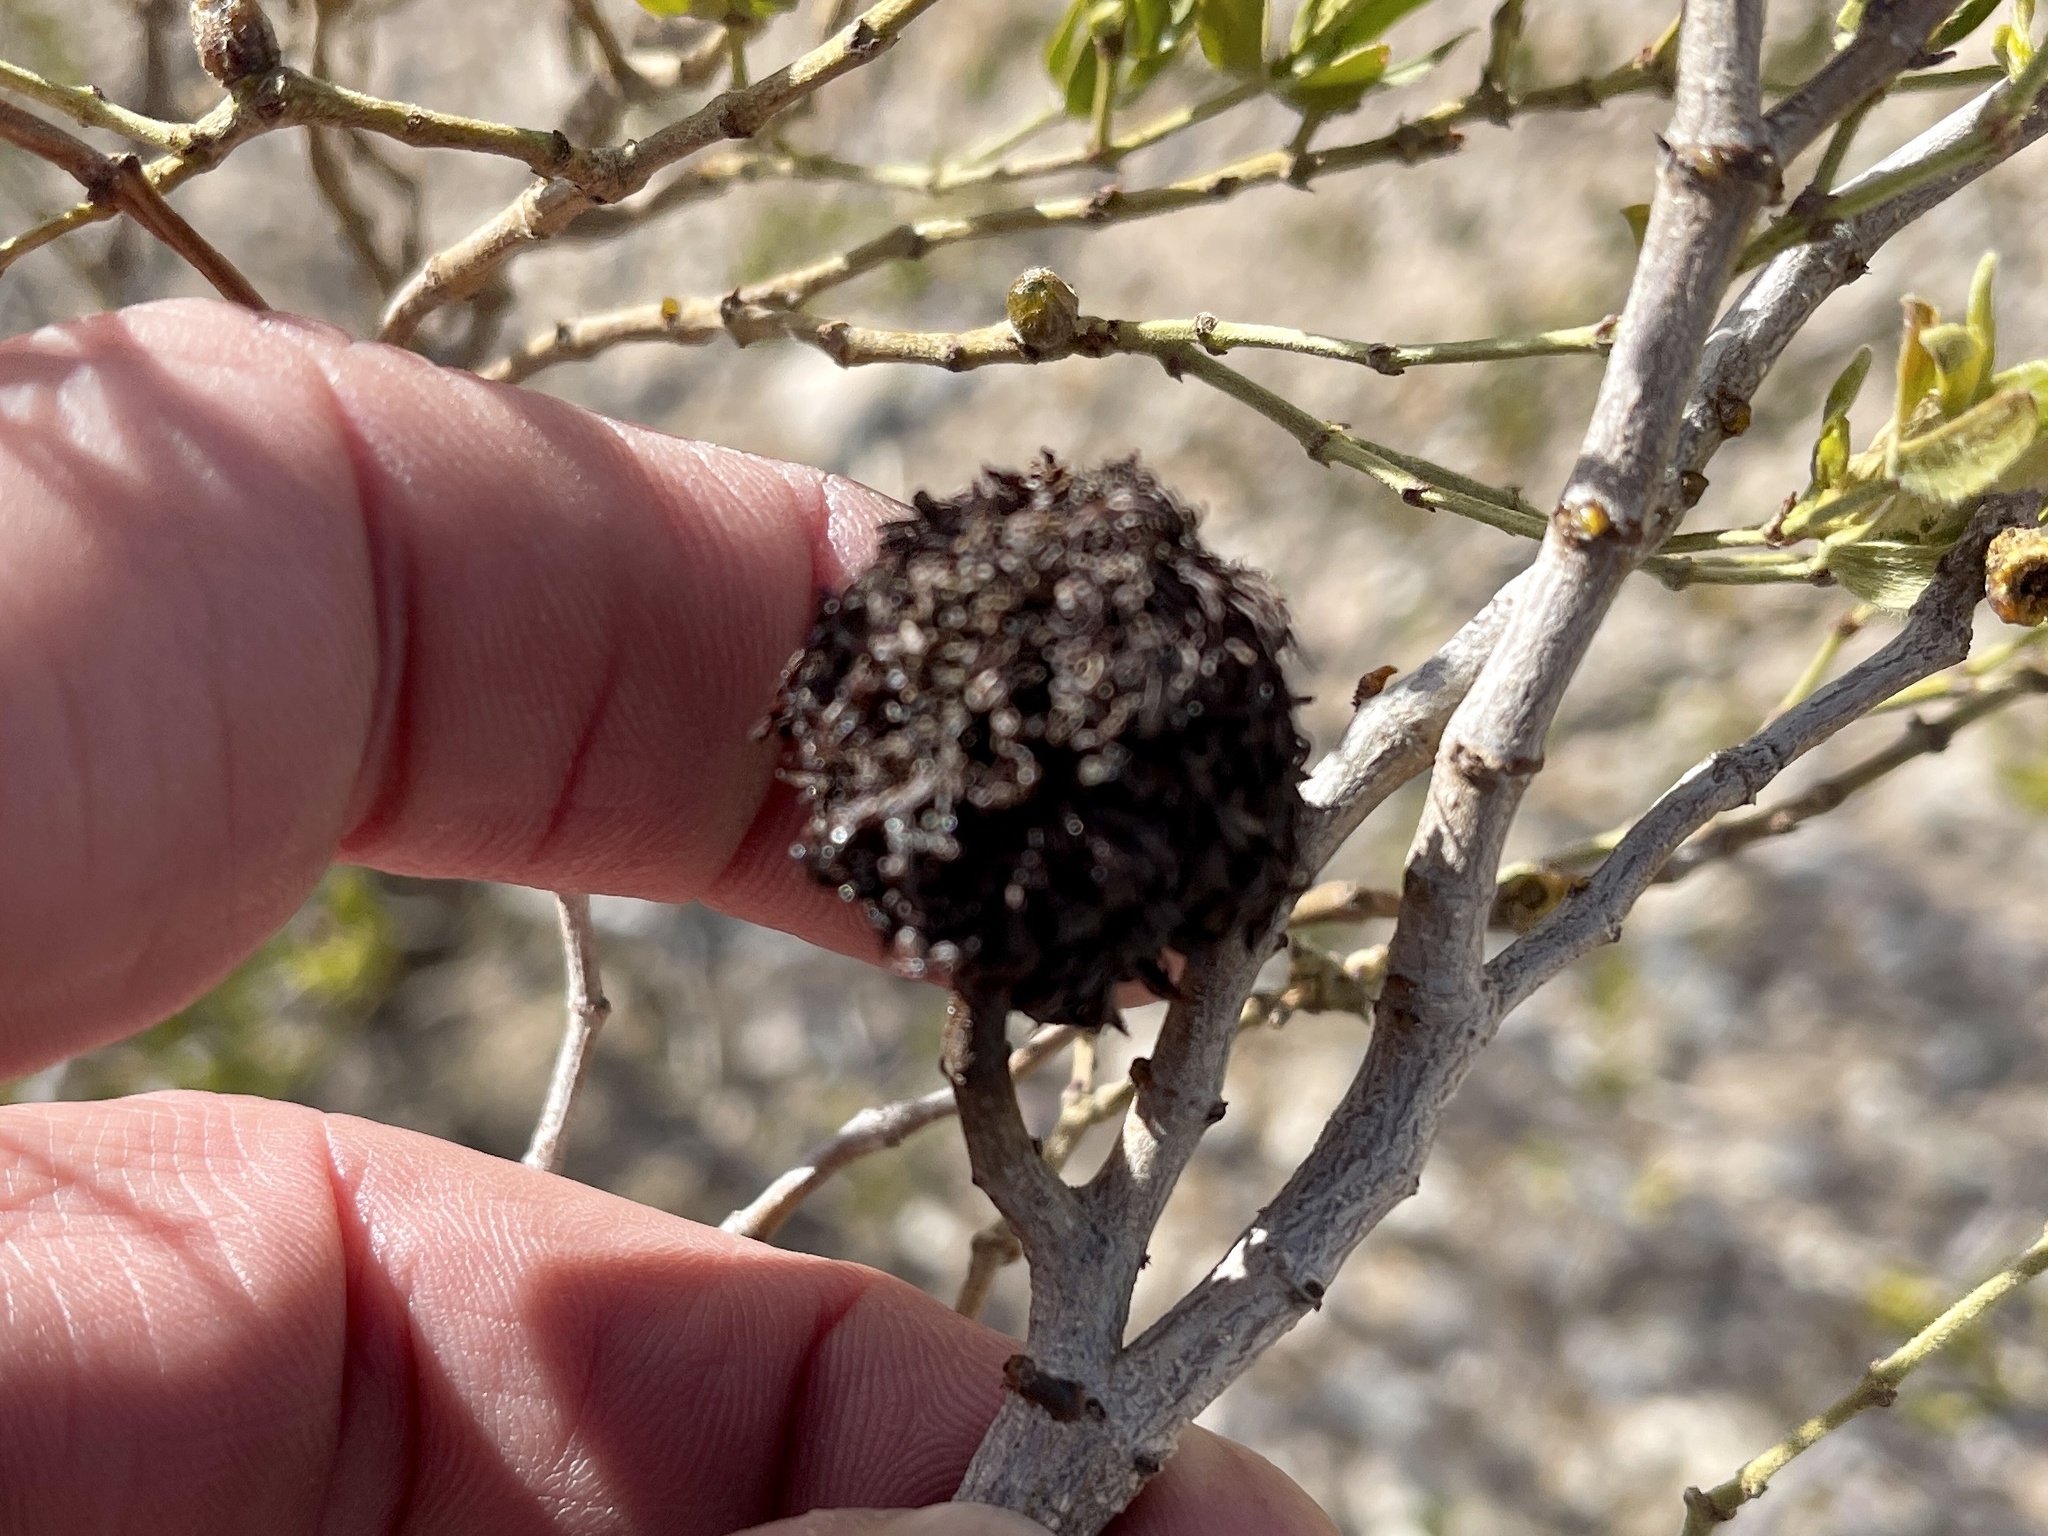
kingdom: Animalia
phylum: Arthropoda
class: Insecta
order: Diptera
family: Cecidomyiidae
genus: Asphondylia
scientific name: Asphondylia auripila
